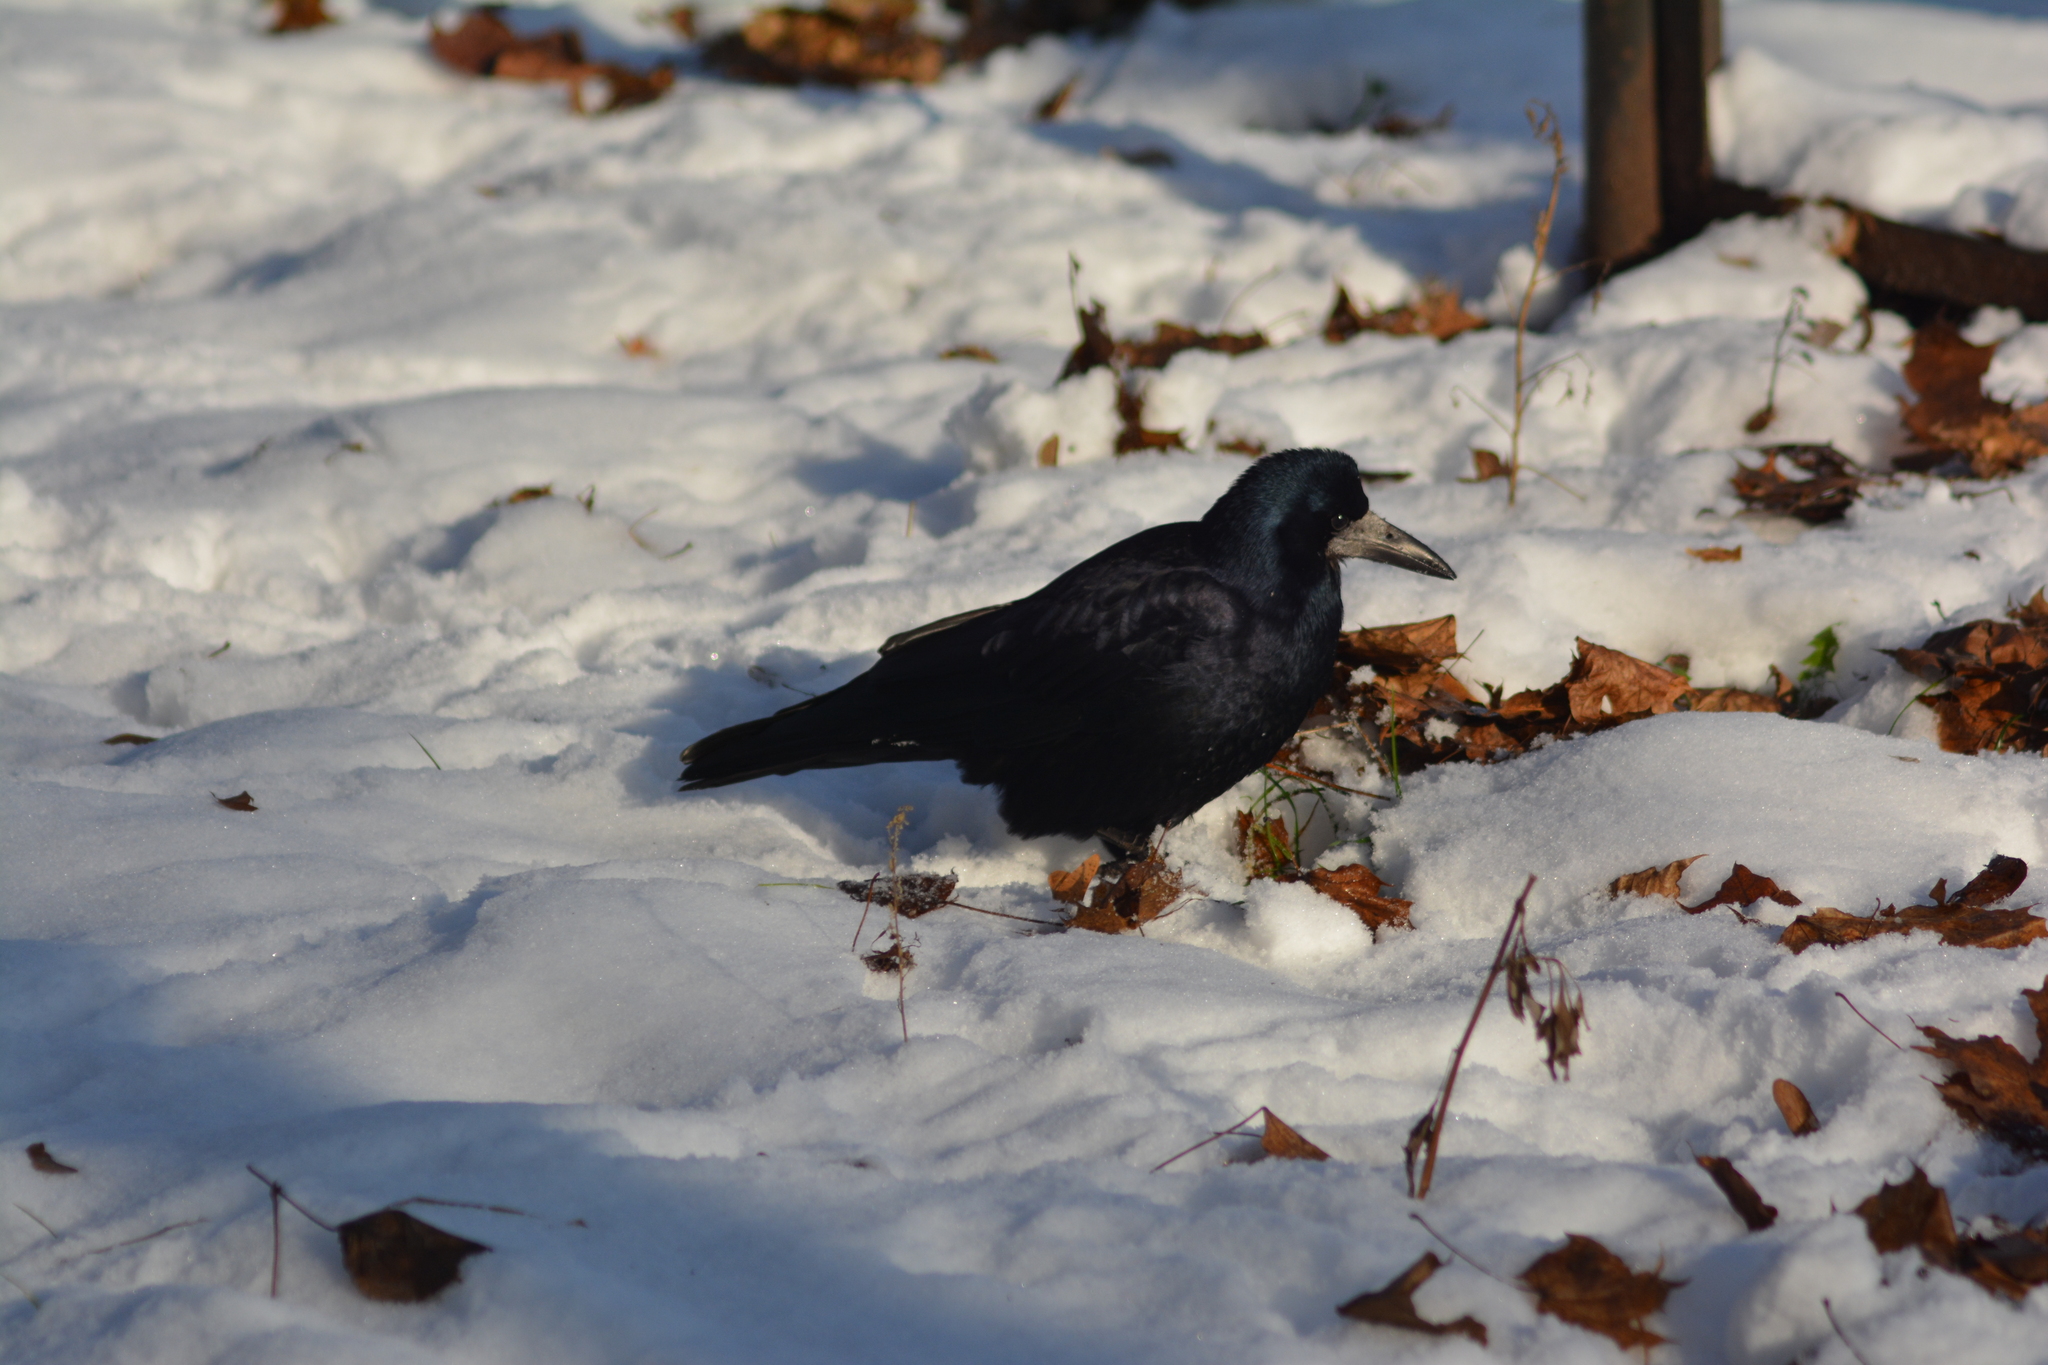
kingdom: Animalia
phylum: Chordata
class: Aves
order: Passeriformes
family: Corvidae
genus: Corvus
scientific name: Corvus frugilegus
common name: Rook
